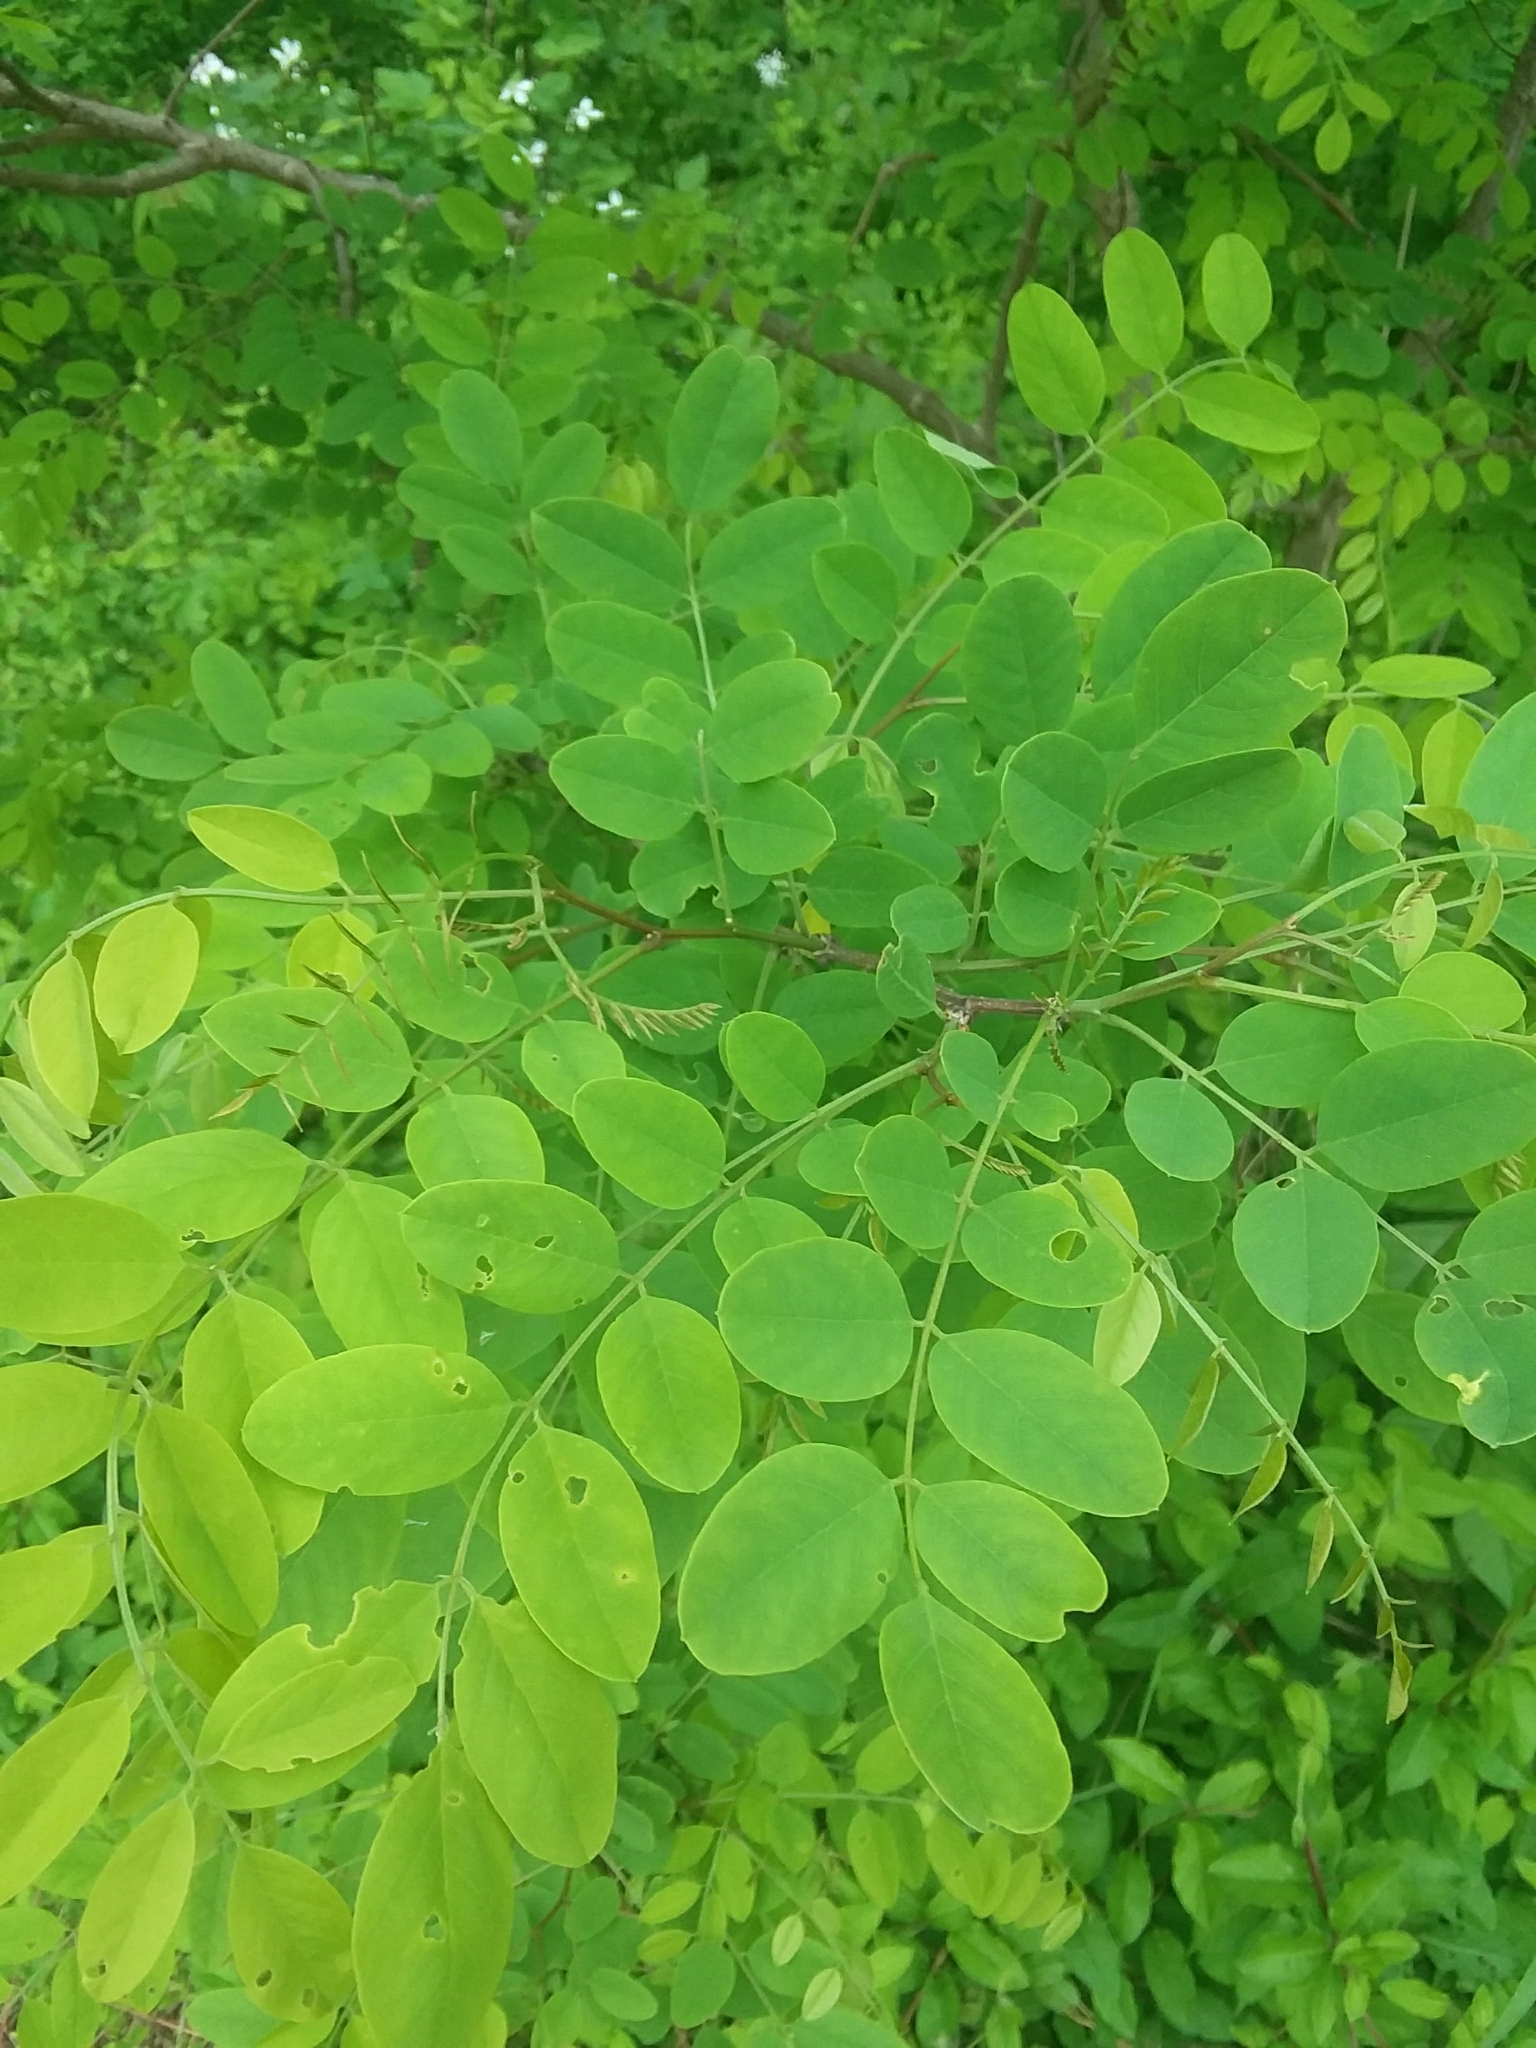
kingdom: Plantae
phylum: Tracheophyta
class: Magnoliopsida
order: Fabales
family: Fabaceae
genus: Robinia
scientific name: Robinia pseudoacacia
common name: Black locust
